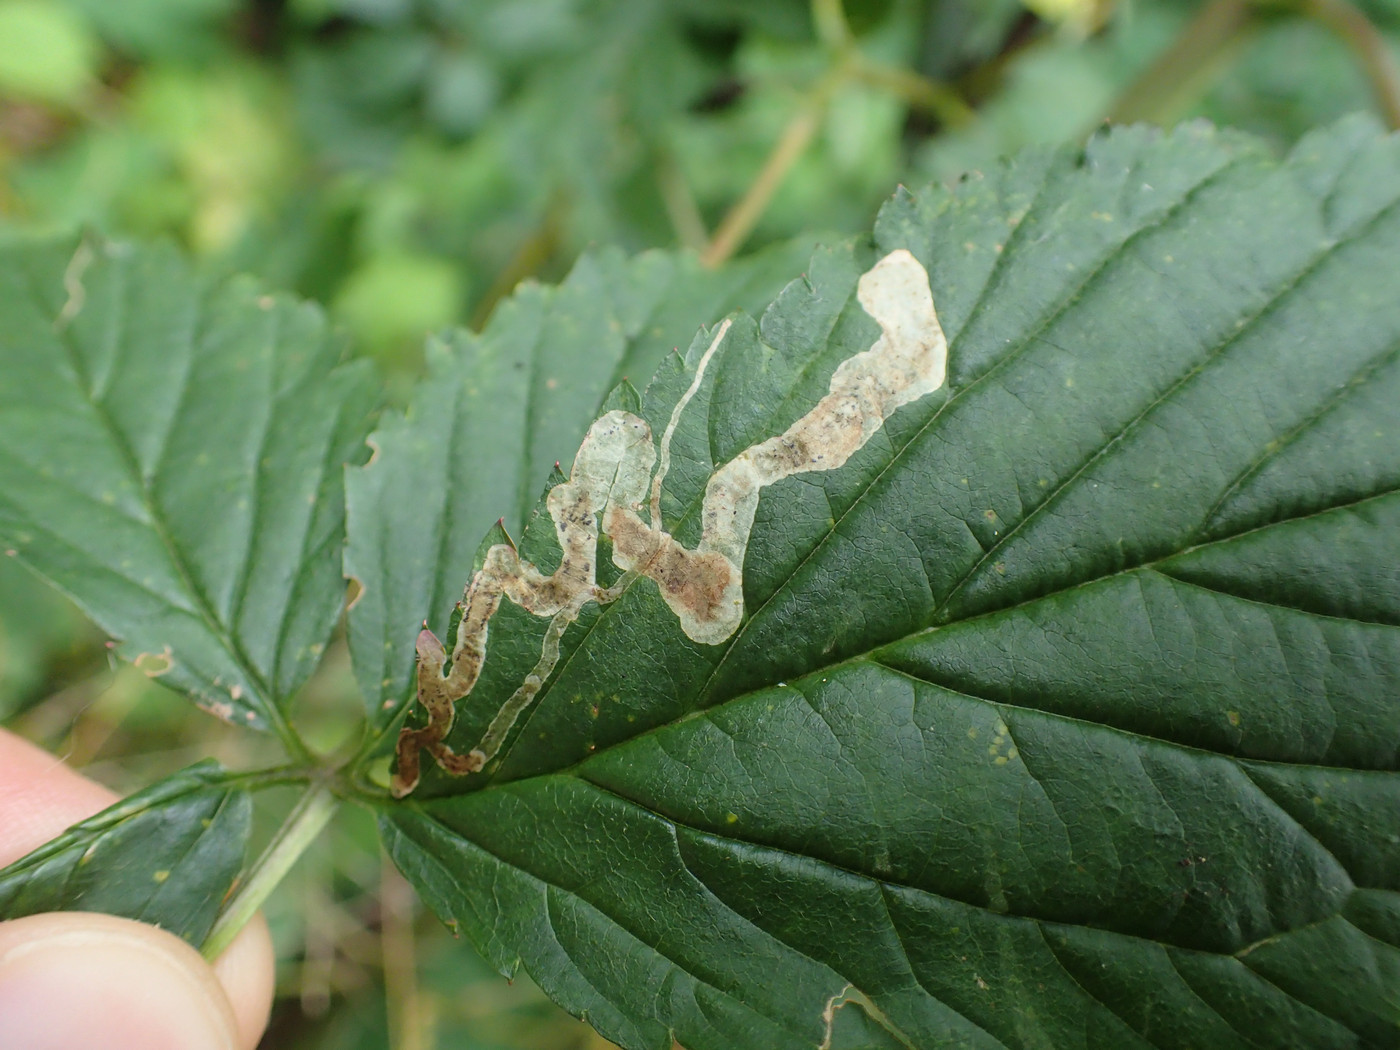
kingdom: Animalia
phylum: Arthropoda
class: Insecta
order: Diptera
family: Agromyzidae
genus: Agromyza
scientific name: Agromyza vockerothi
